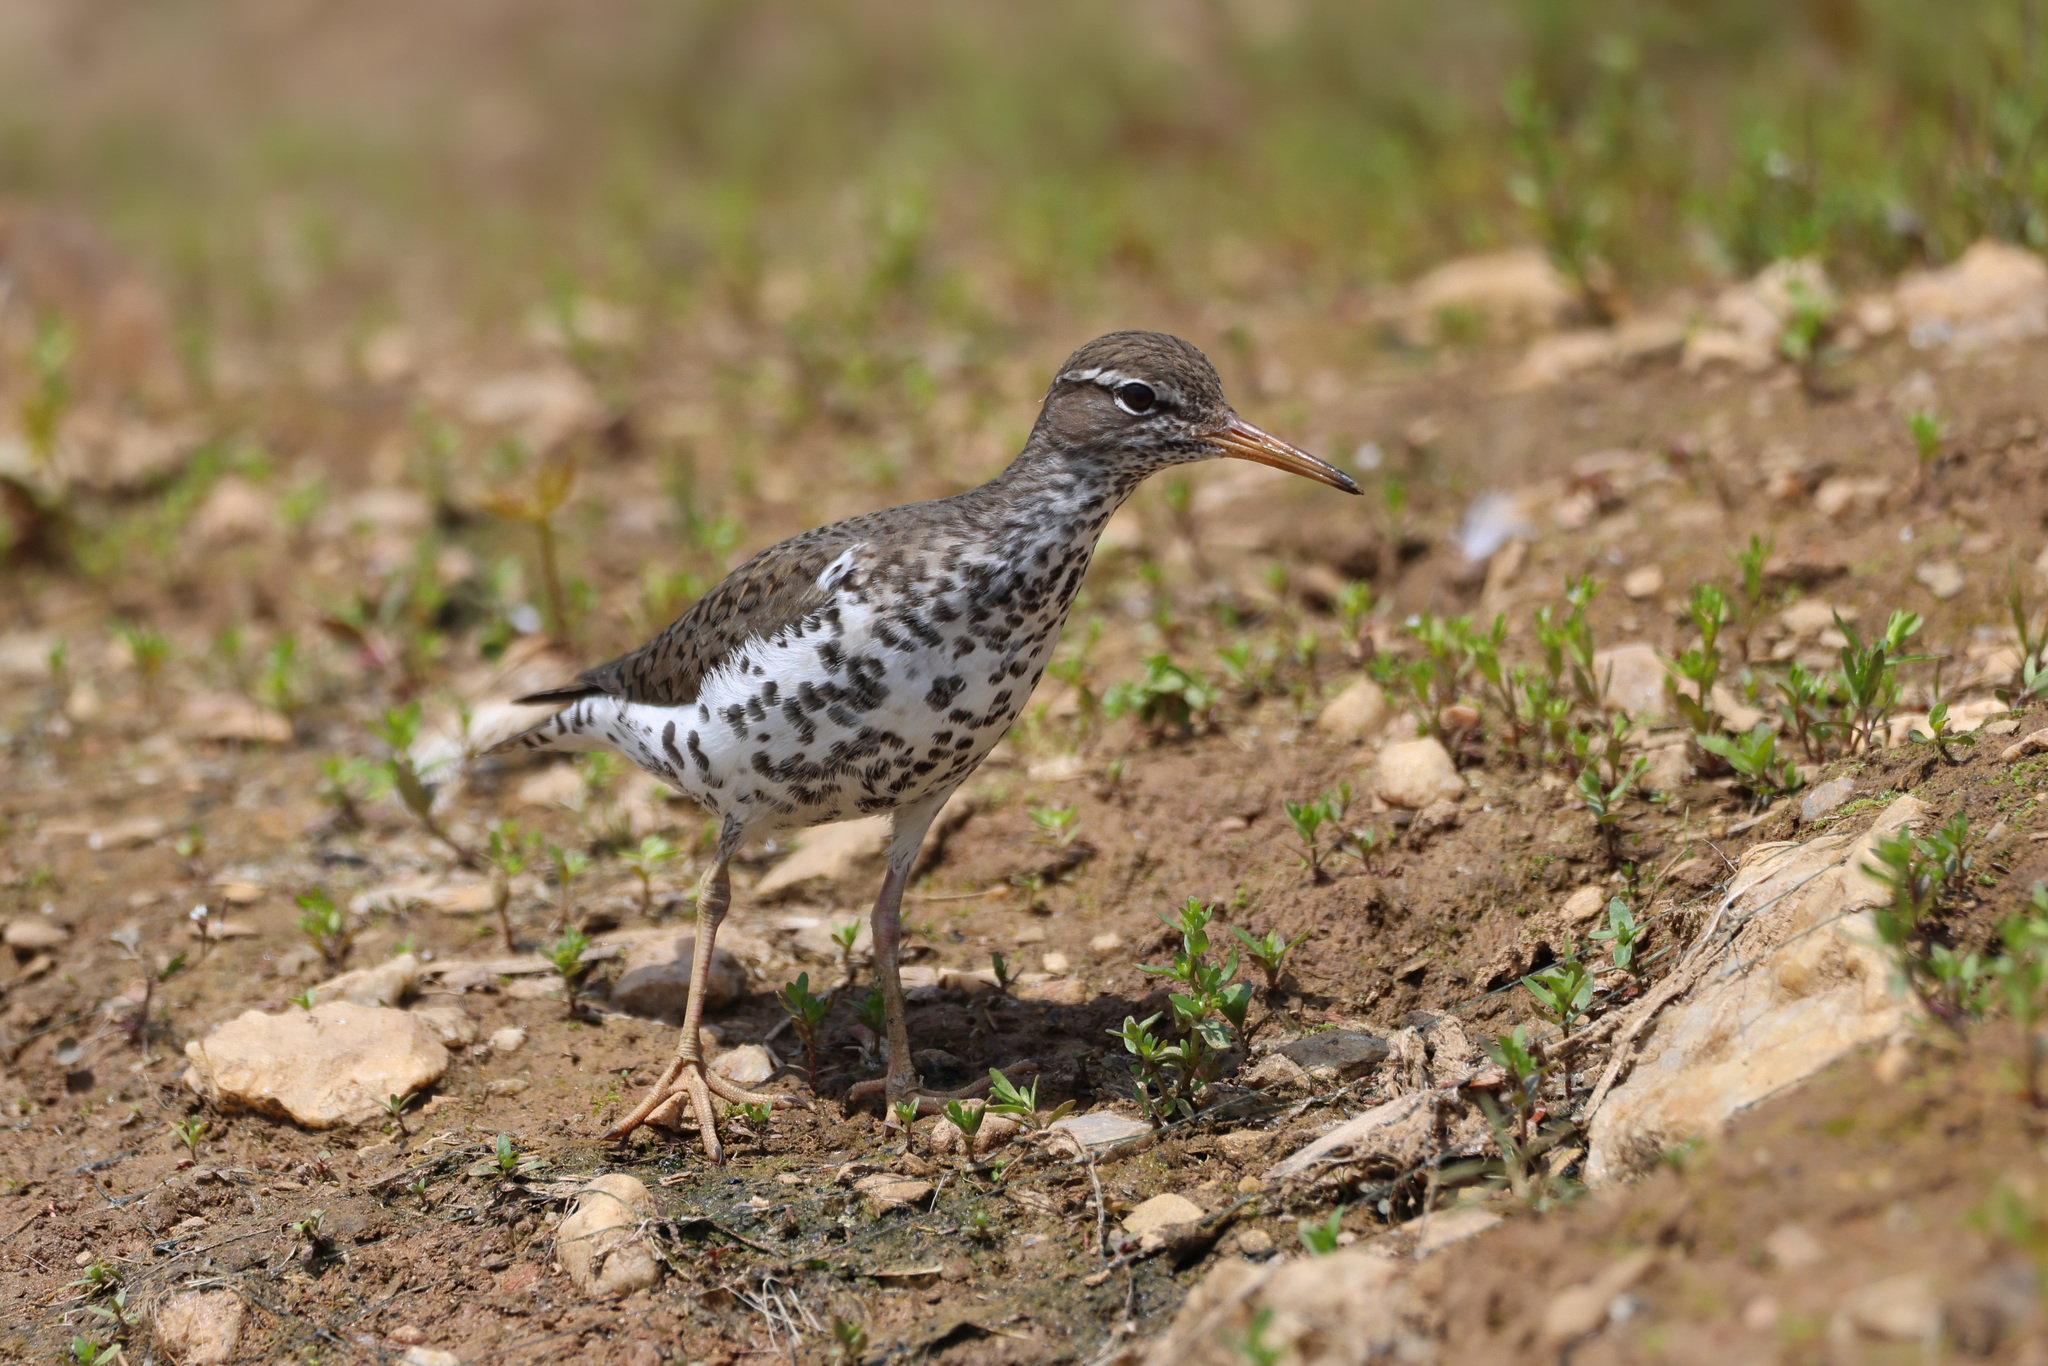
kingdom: Animalia
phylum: Chordata
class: Aves
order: Charadriiformes
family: Scolopacidae
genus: Actitis
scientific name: Actitis macularius
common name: Spotted sandpiper
